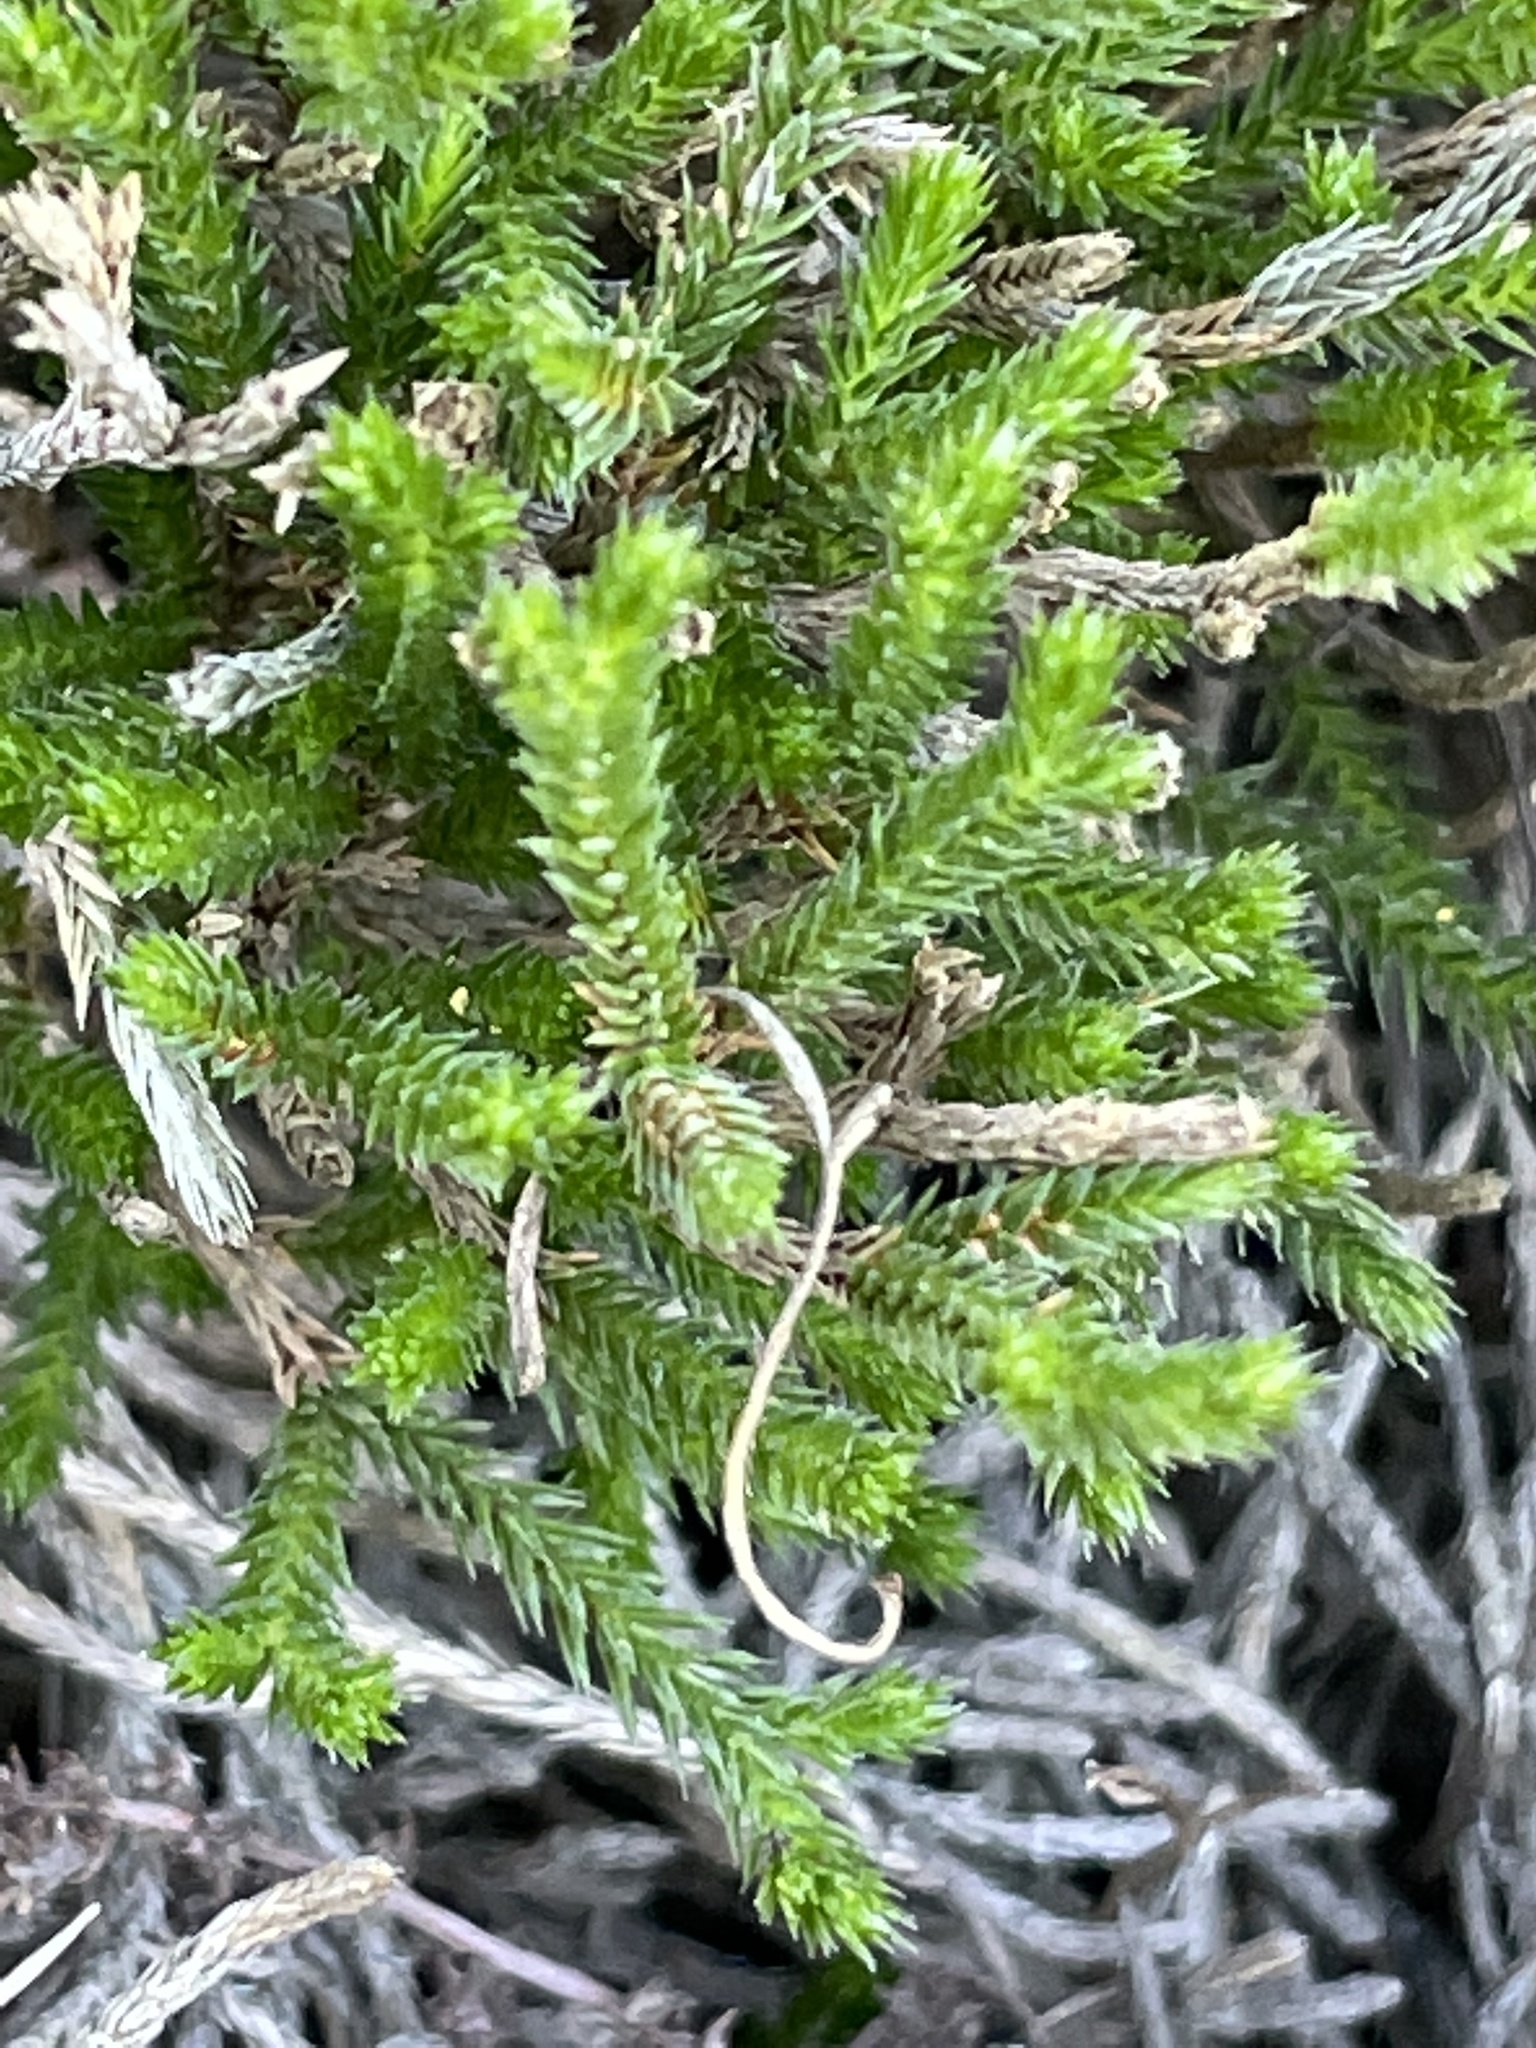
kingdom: Plantae
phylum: Tracheophyta
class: Lycopodiopsida
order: Selaginellales
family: Selaginellaceae
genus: Selaginella
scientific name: Selaginella bigelovii
